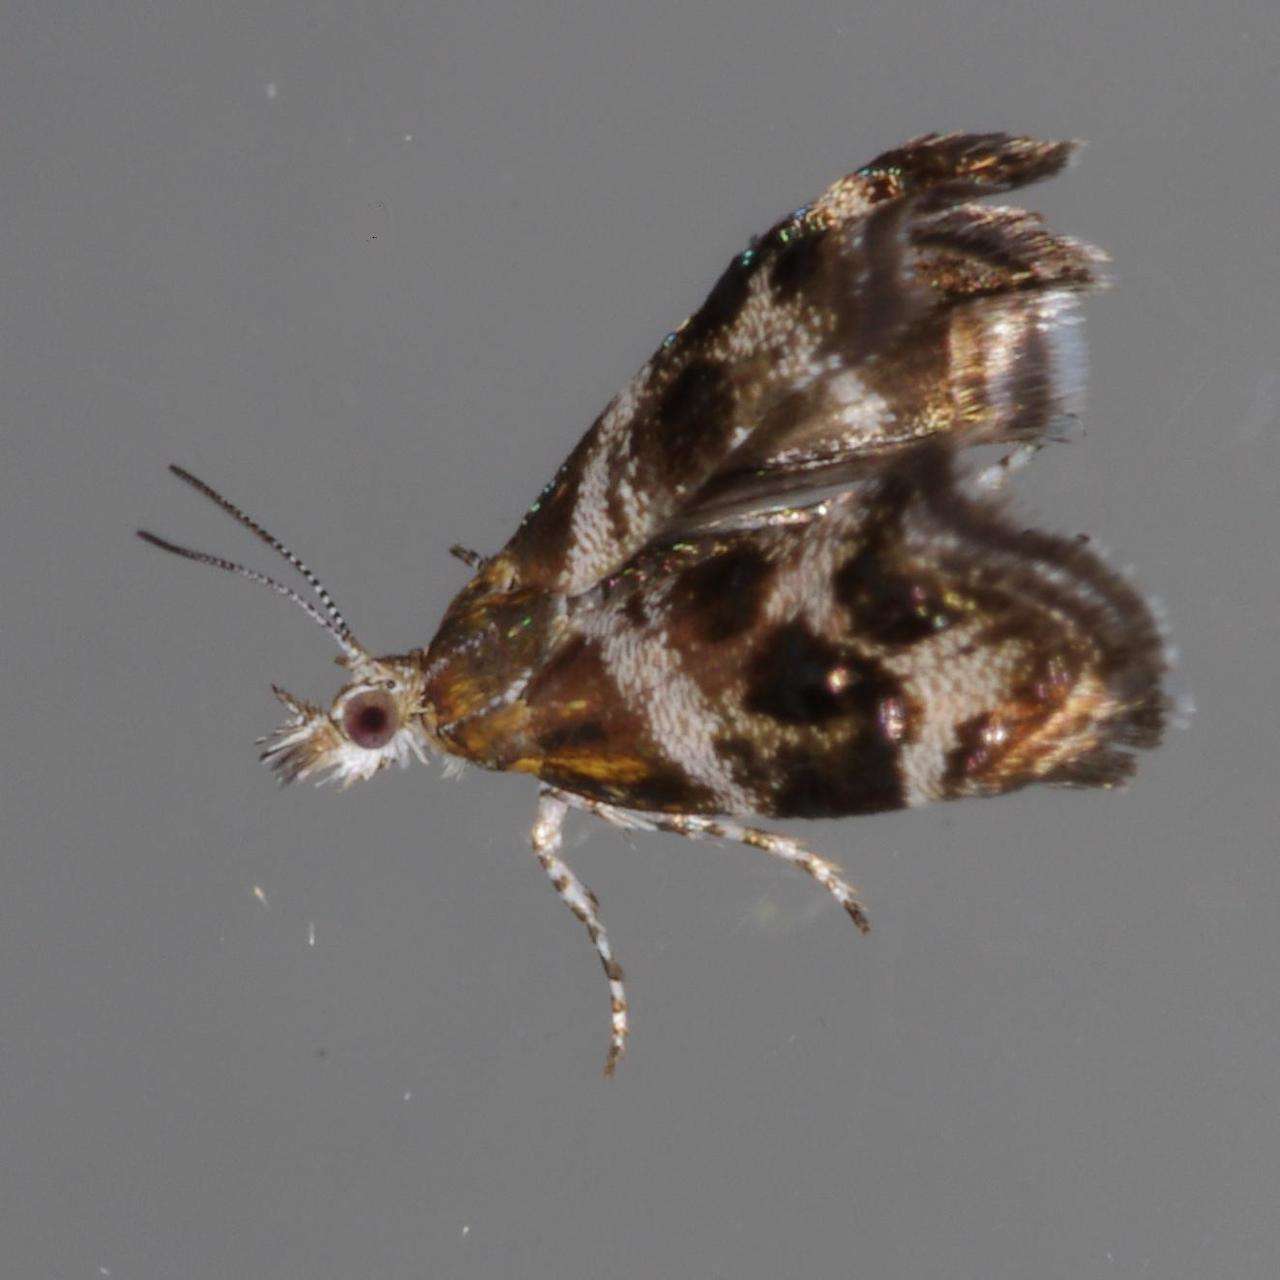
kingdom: Animalia
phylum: Arthropoda
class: Insecta
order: Lepidoptera
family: Choreutidae
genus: Tebenna
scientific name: Tebenna micalis
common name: Vagrant twitcher
